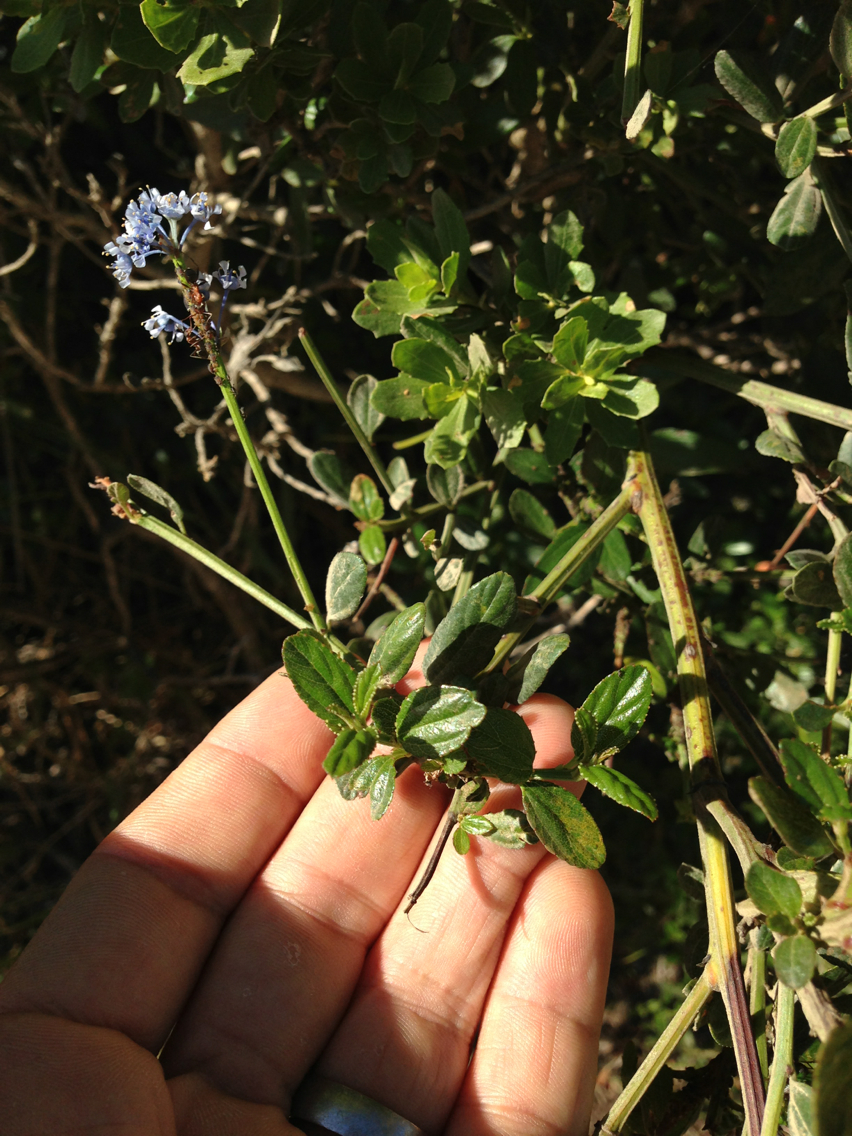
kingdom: Plantae
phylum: Tracheophyta
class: Magnoliopsida
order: Rosales
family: Rhamnaceae
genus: Ceanothus
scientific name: Ceanothus thyrsiflorus
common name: California-lilac
